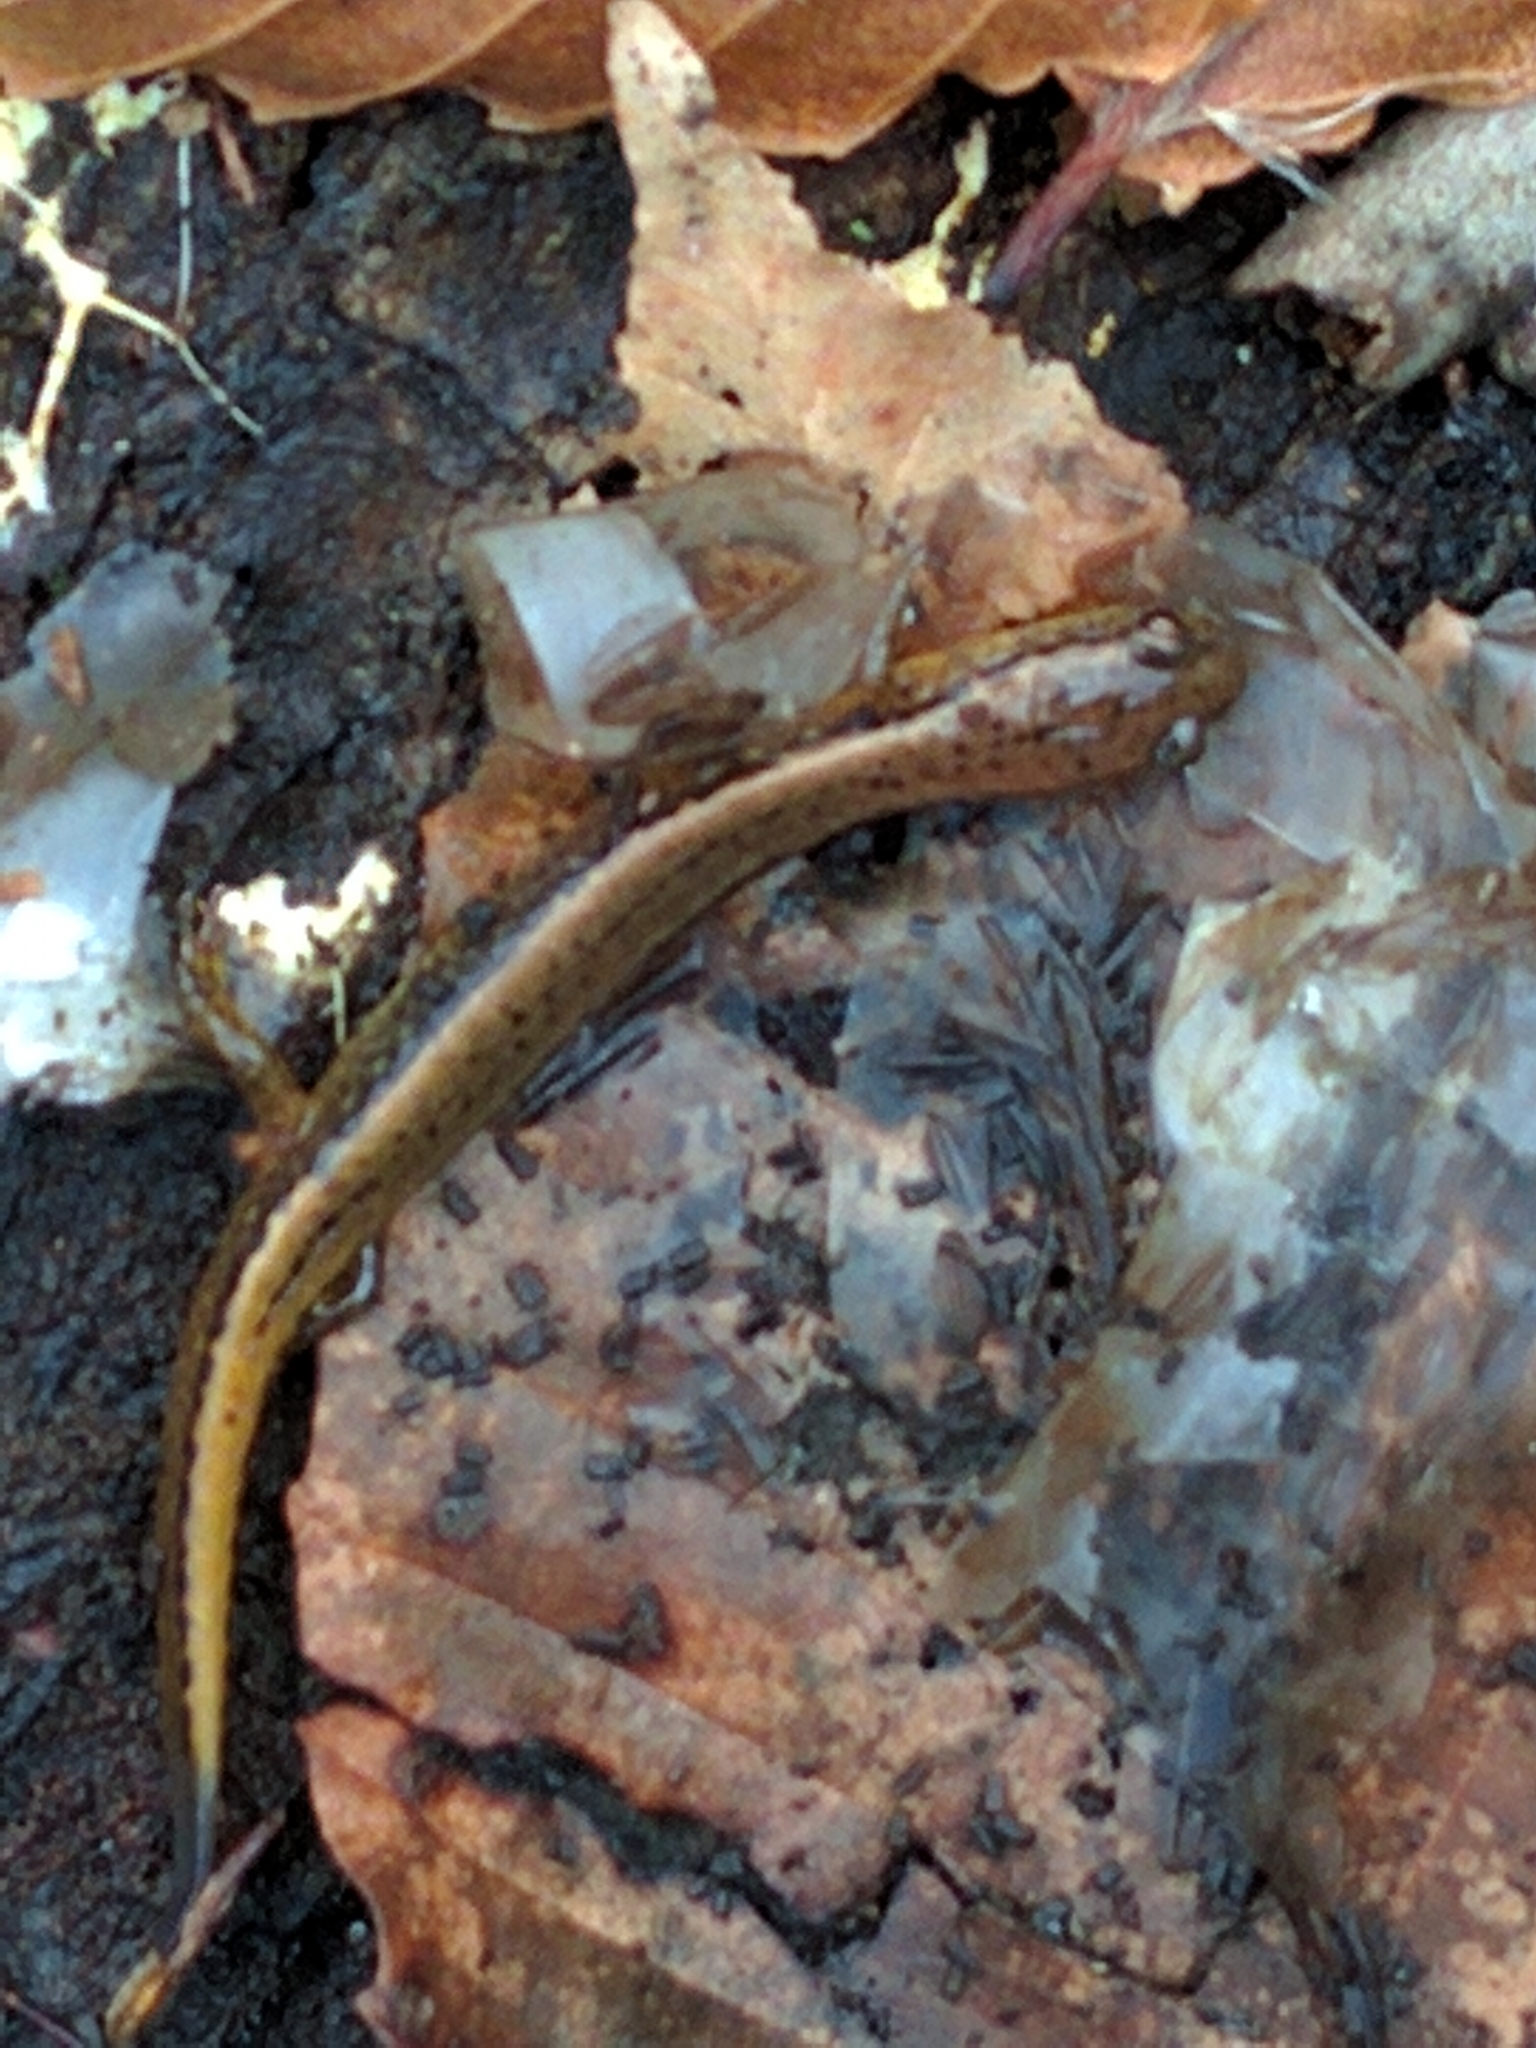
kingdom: Animalia
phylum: Chordata
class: Amphibia
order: Caudata
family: Plethodontidae
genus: Eurycea
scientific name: Eurycea bislineata
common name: Northern two-lined salamander
